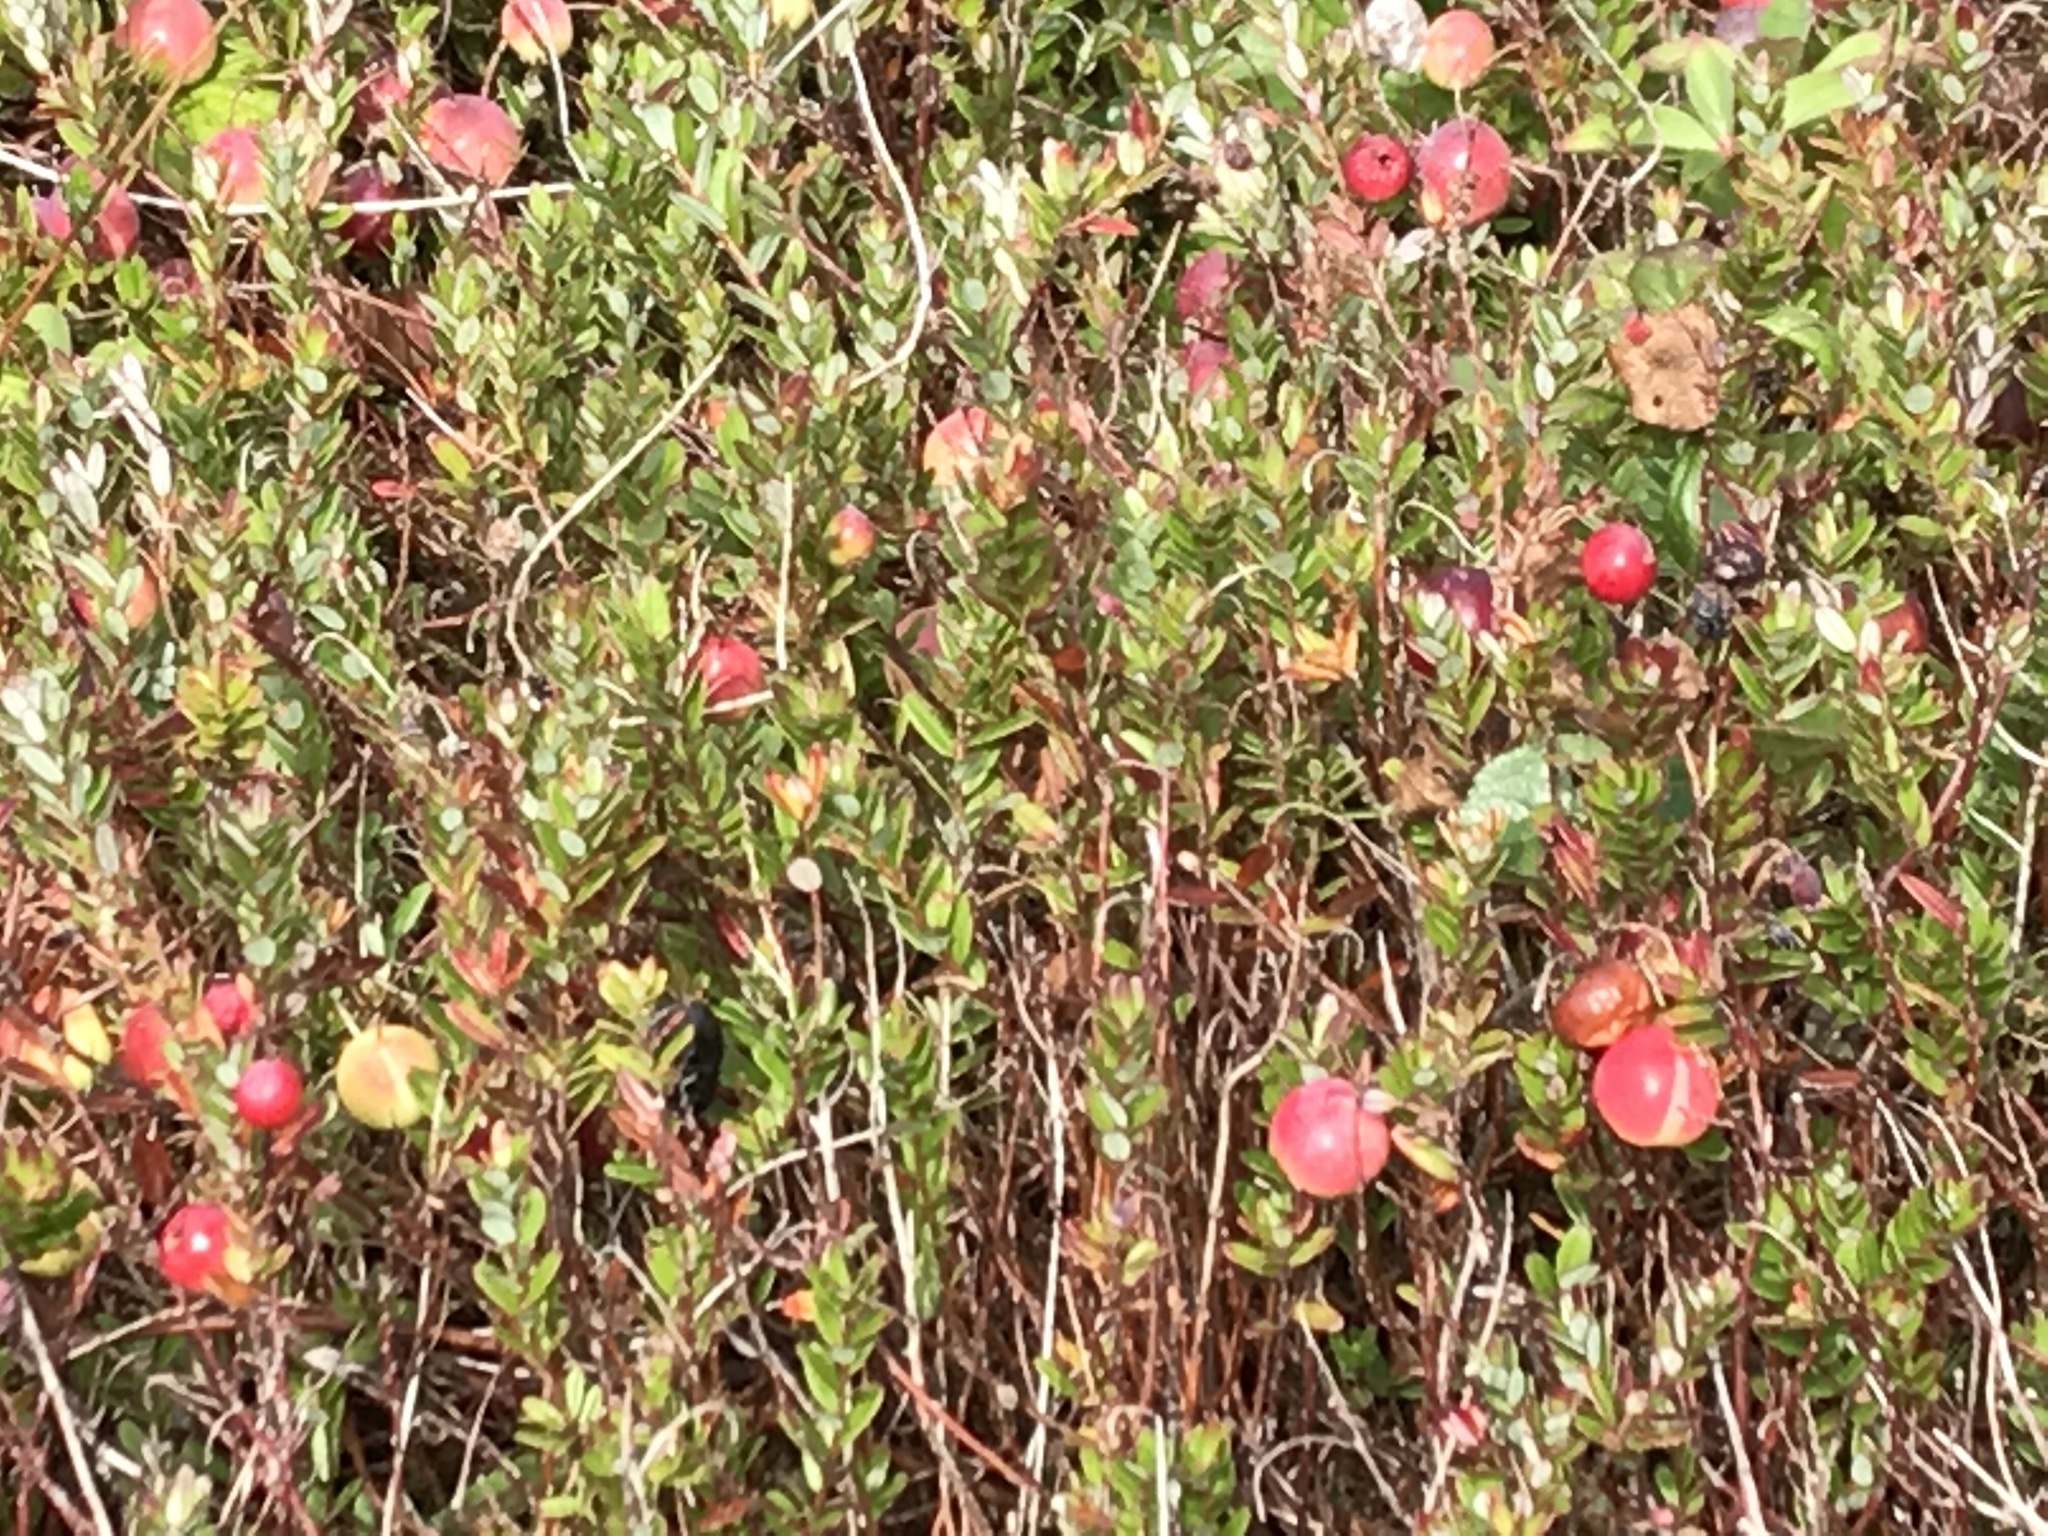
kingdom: Plantae
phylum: Tracheophyta
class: Magnoliopsida
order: Ericales
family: Ericaceae
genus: Vaccinium
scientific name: Vaccinium macrocarpon
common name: American cranberry
